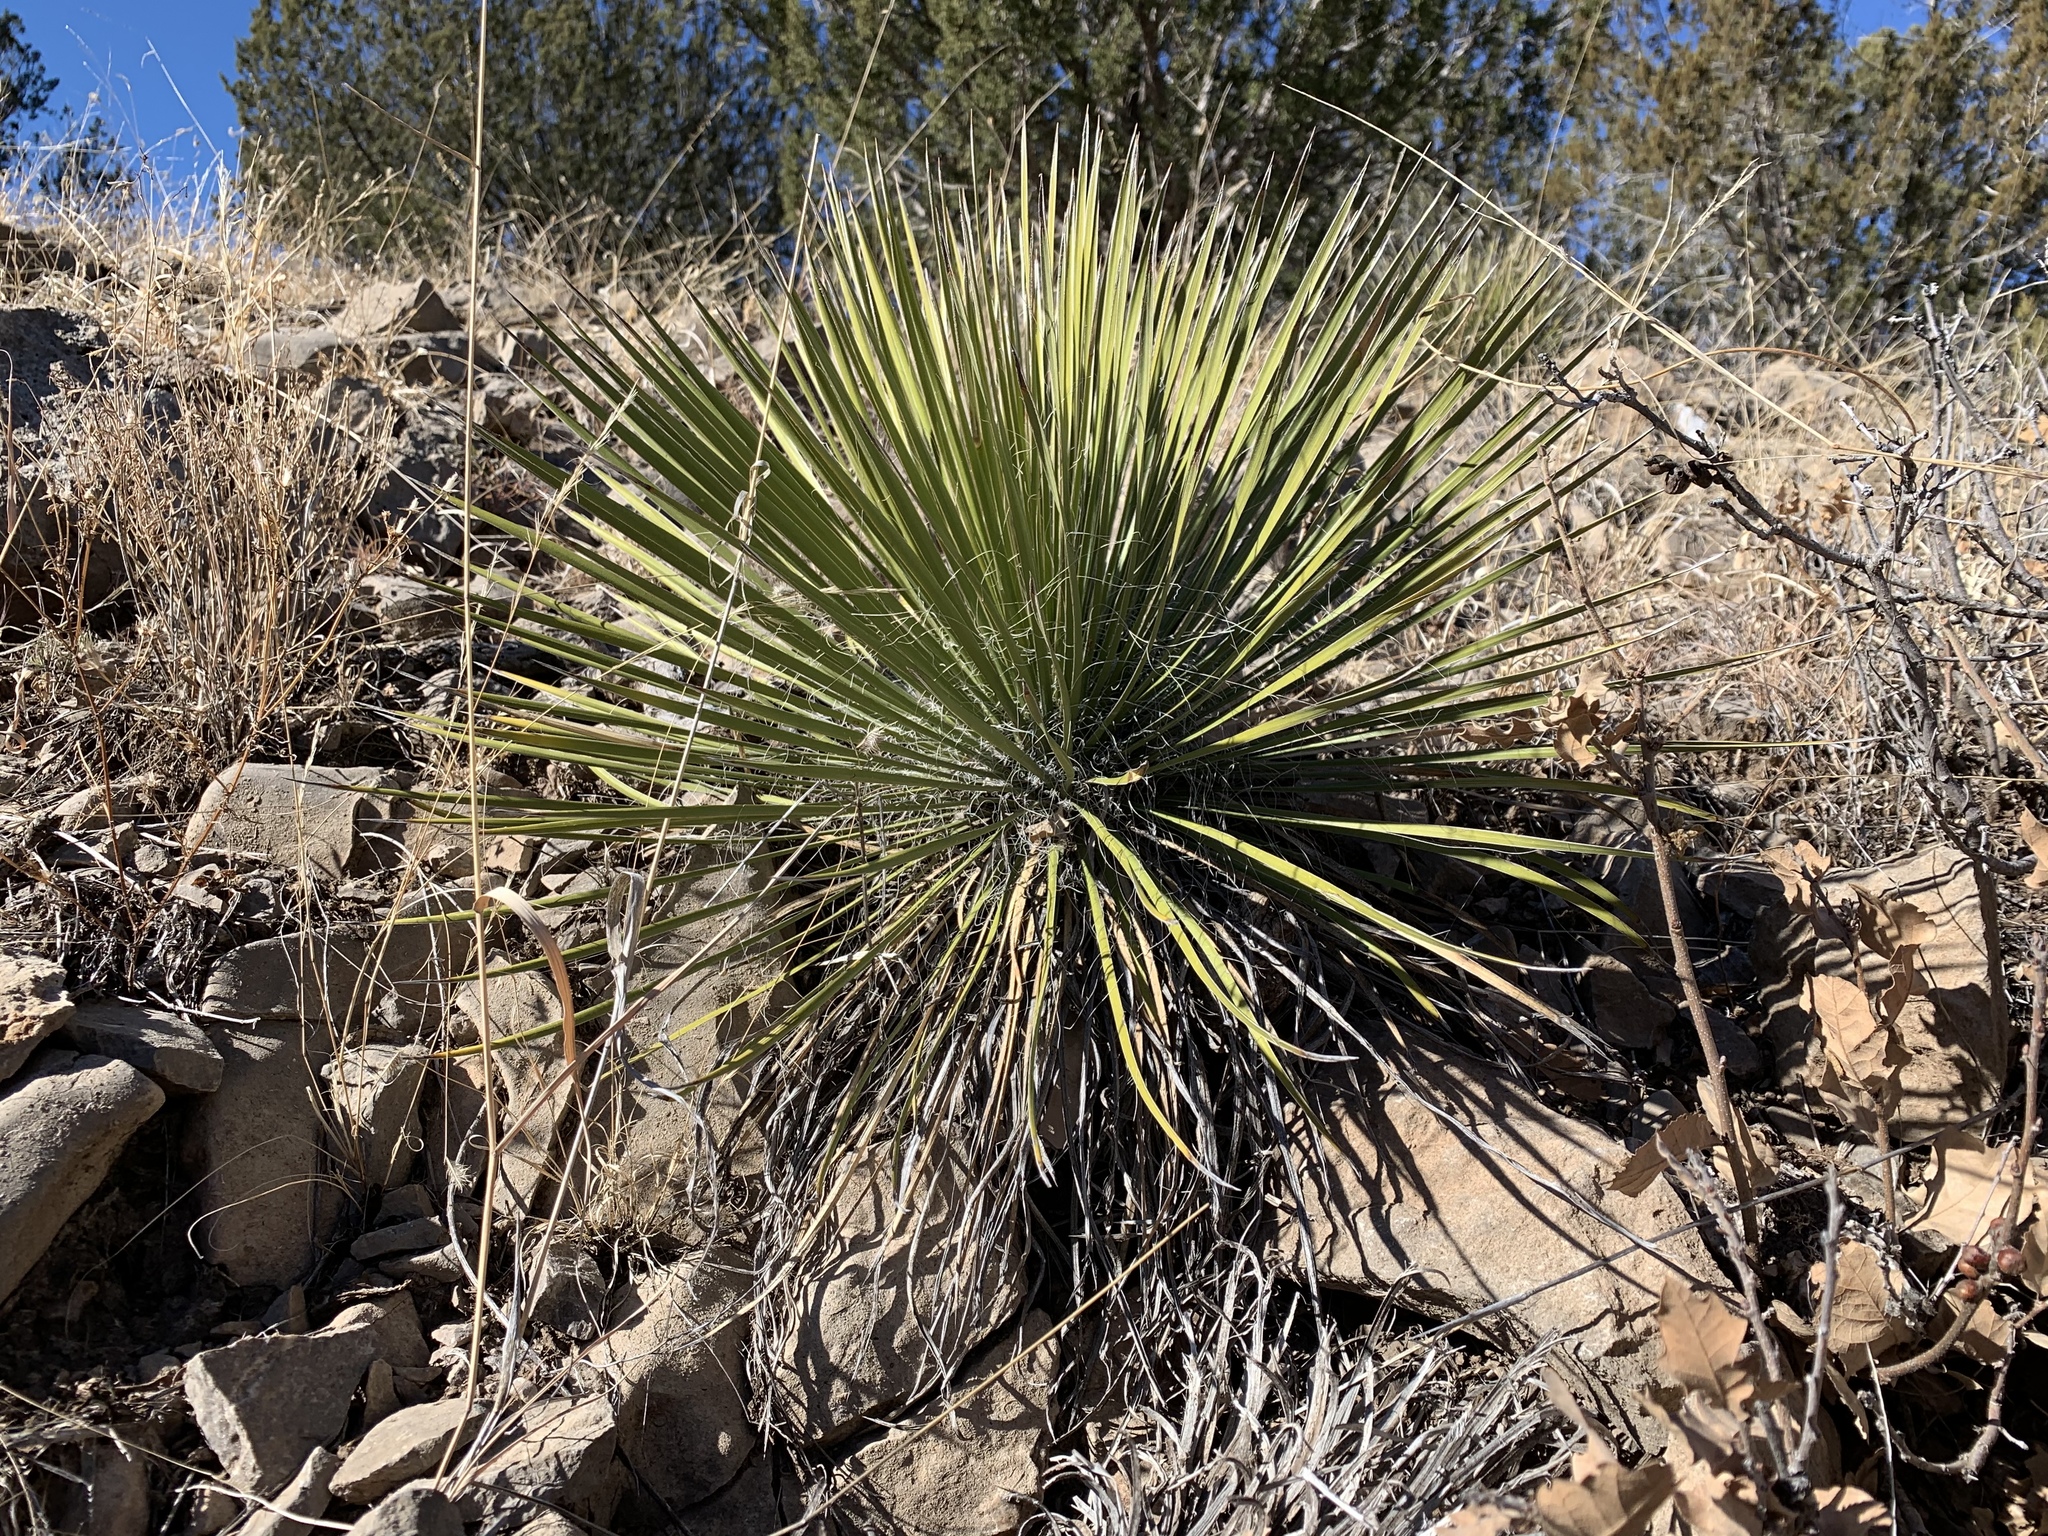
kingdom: Plantae
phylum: Tracheophyta
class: Liliopsida
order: Asparagales
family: Asparagaceae
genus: Yucca
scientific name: Yucca elata
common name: Palmella
